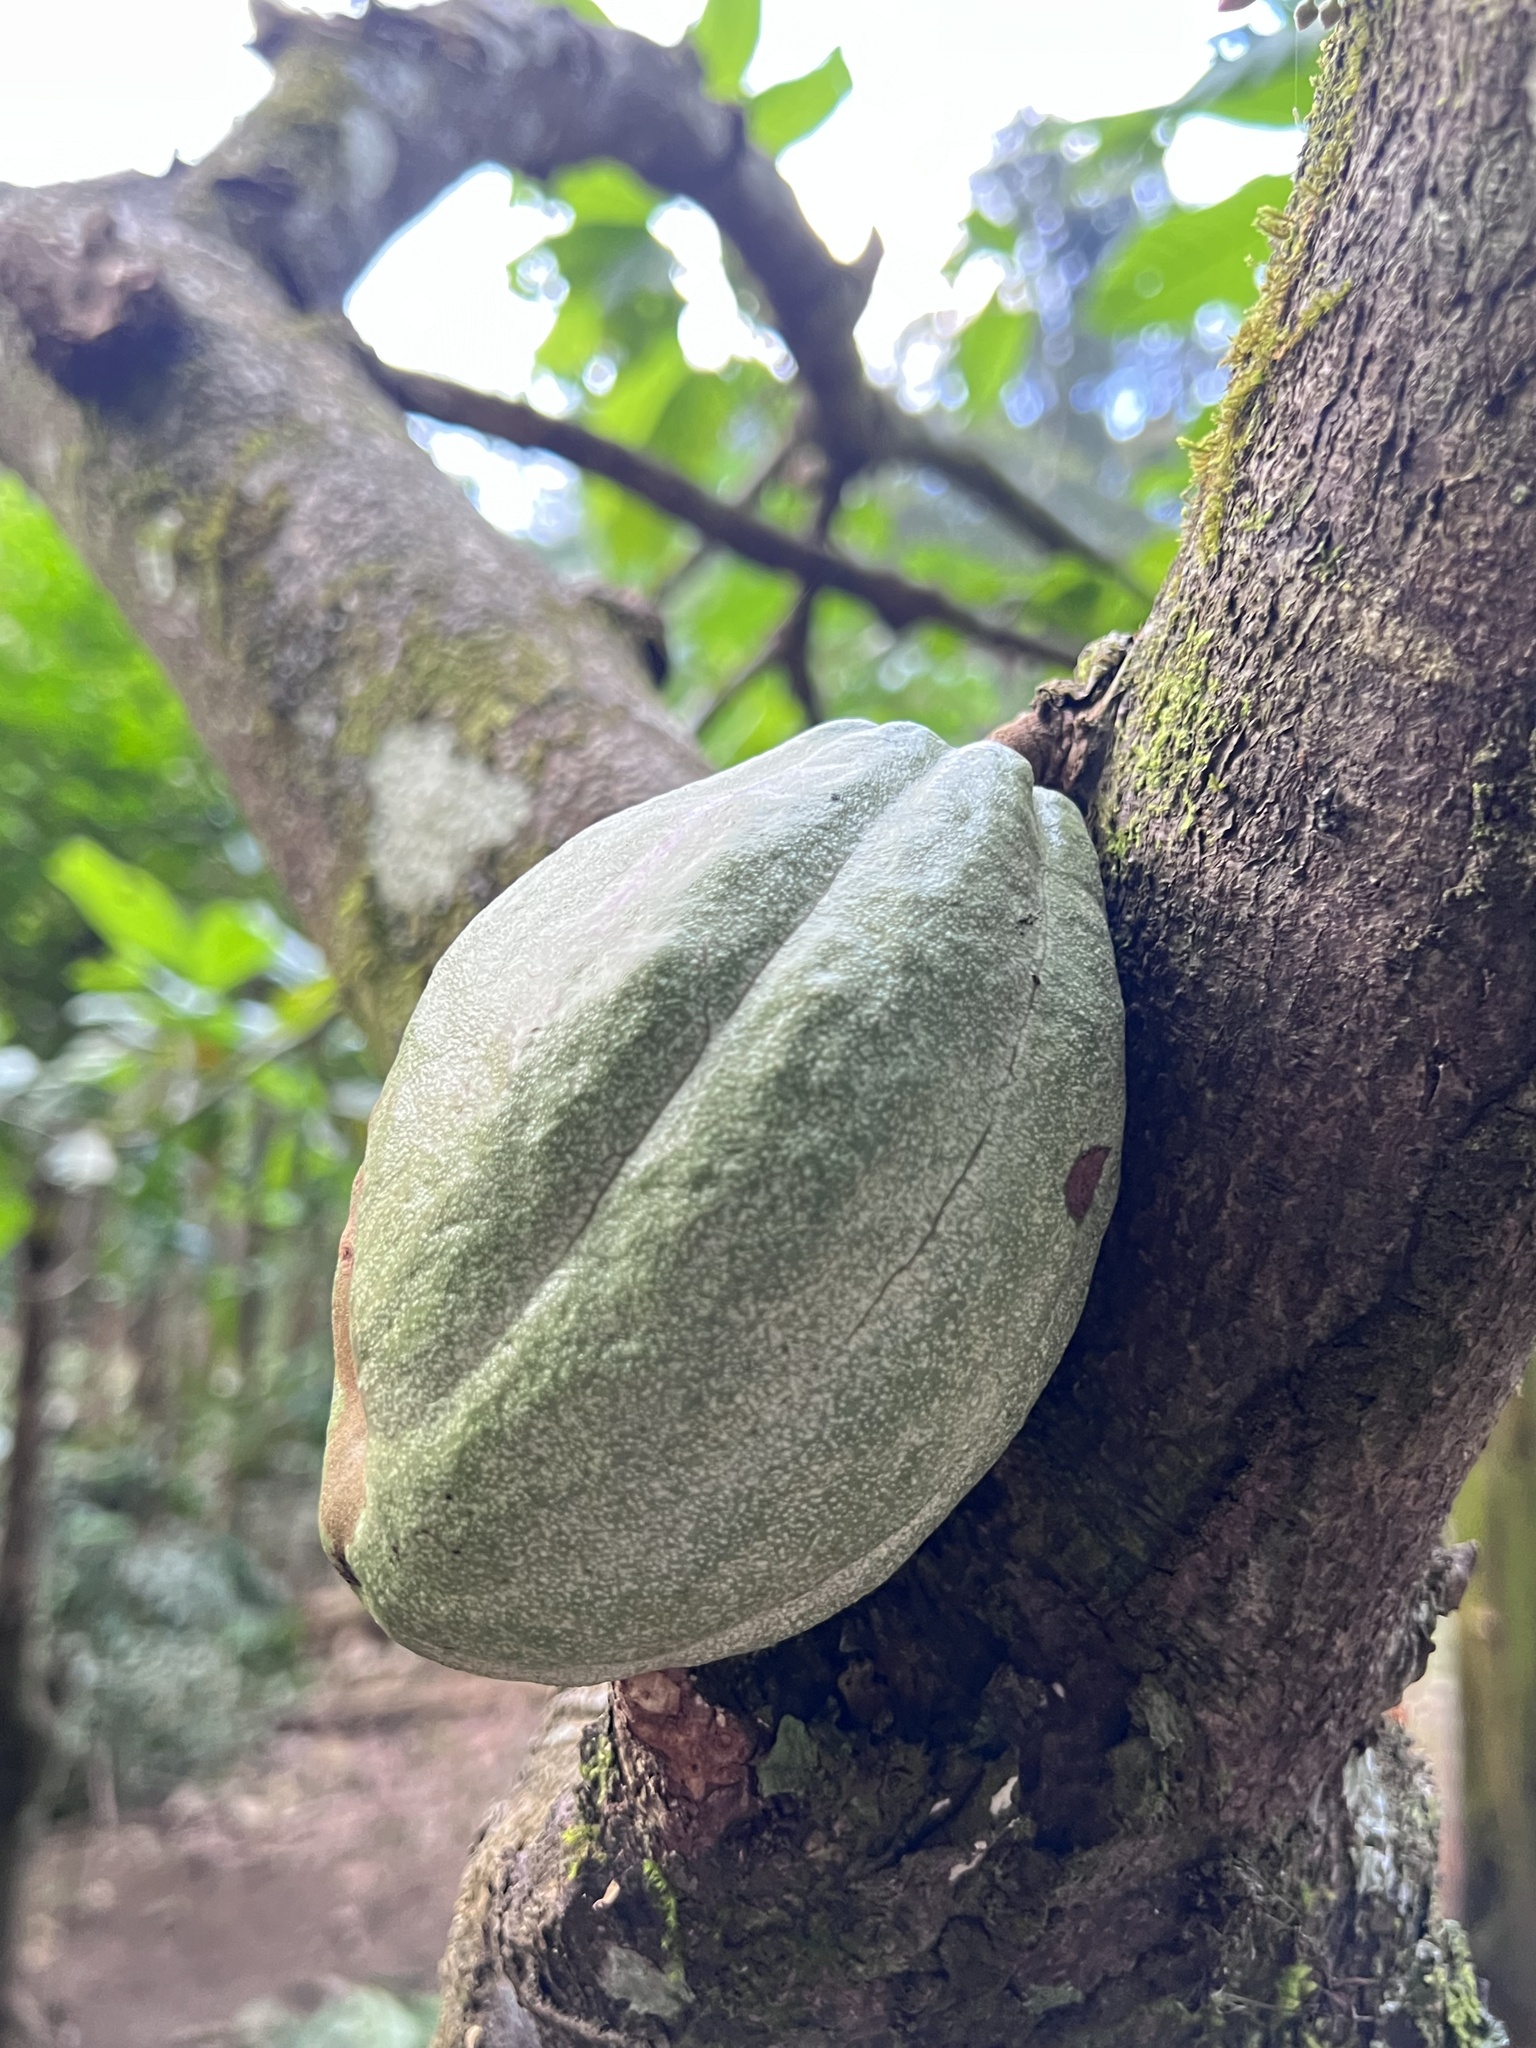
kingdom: Plantae
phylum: Tracheophyta
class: Magnoliopsida
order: Malvales
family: Malvaceae
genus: Theobroma
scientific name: Theobroma cacao
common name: Cocoa
